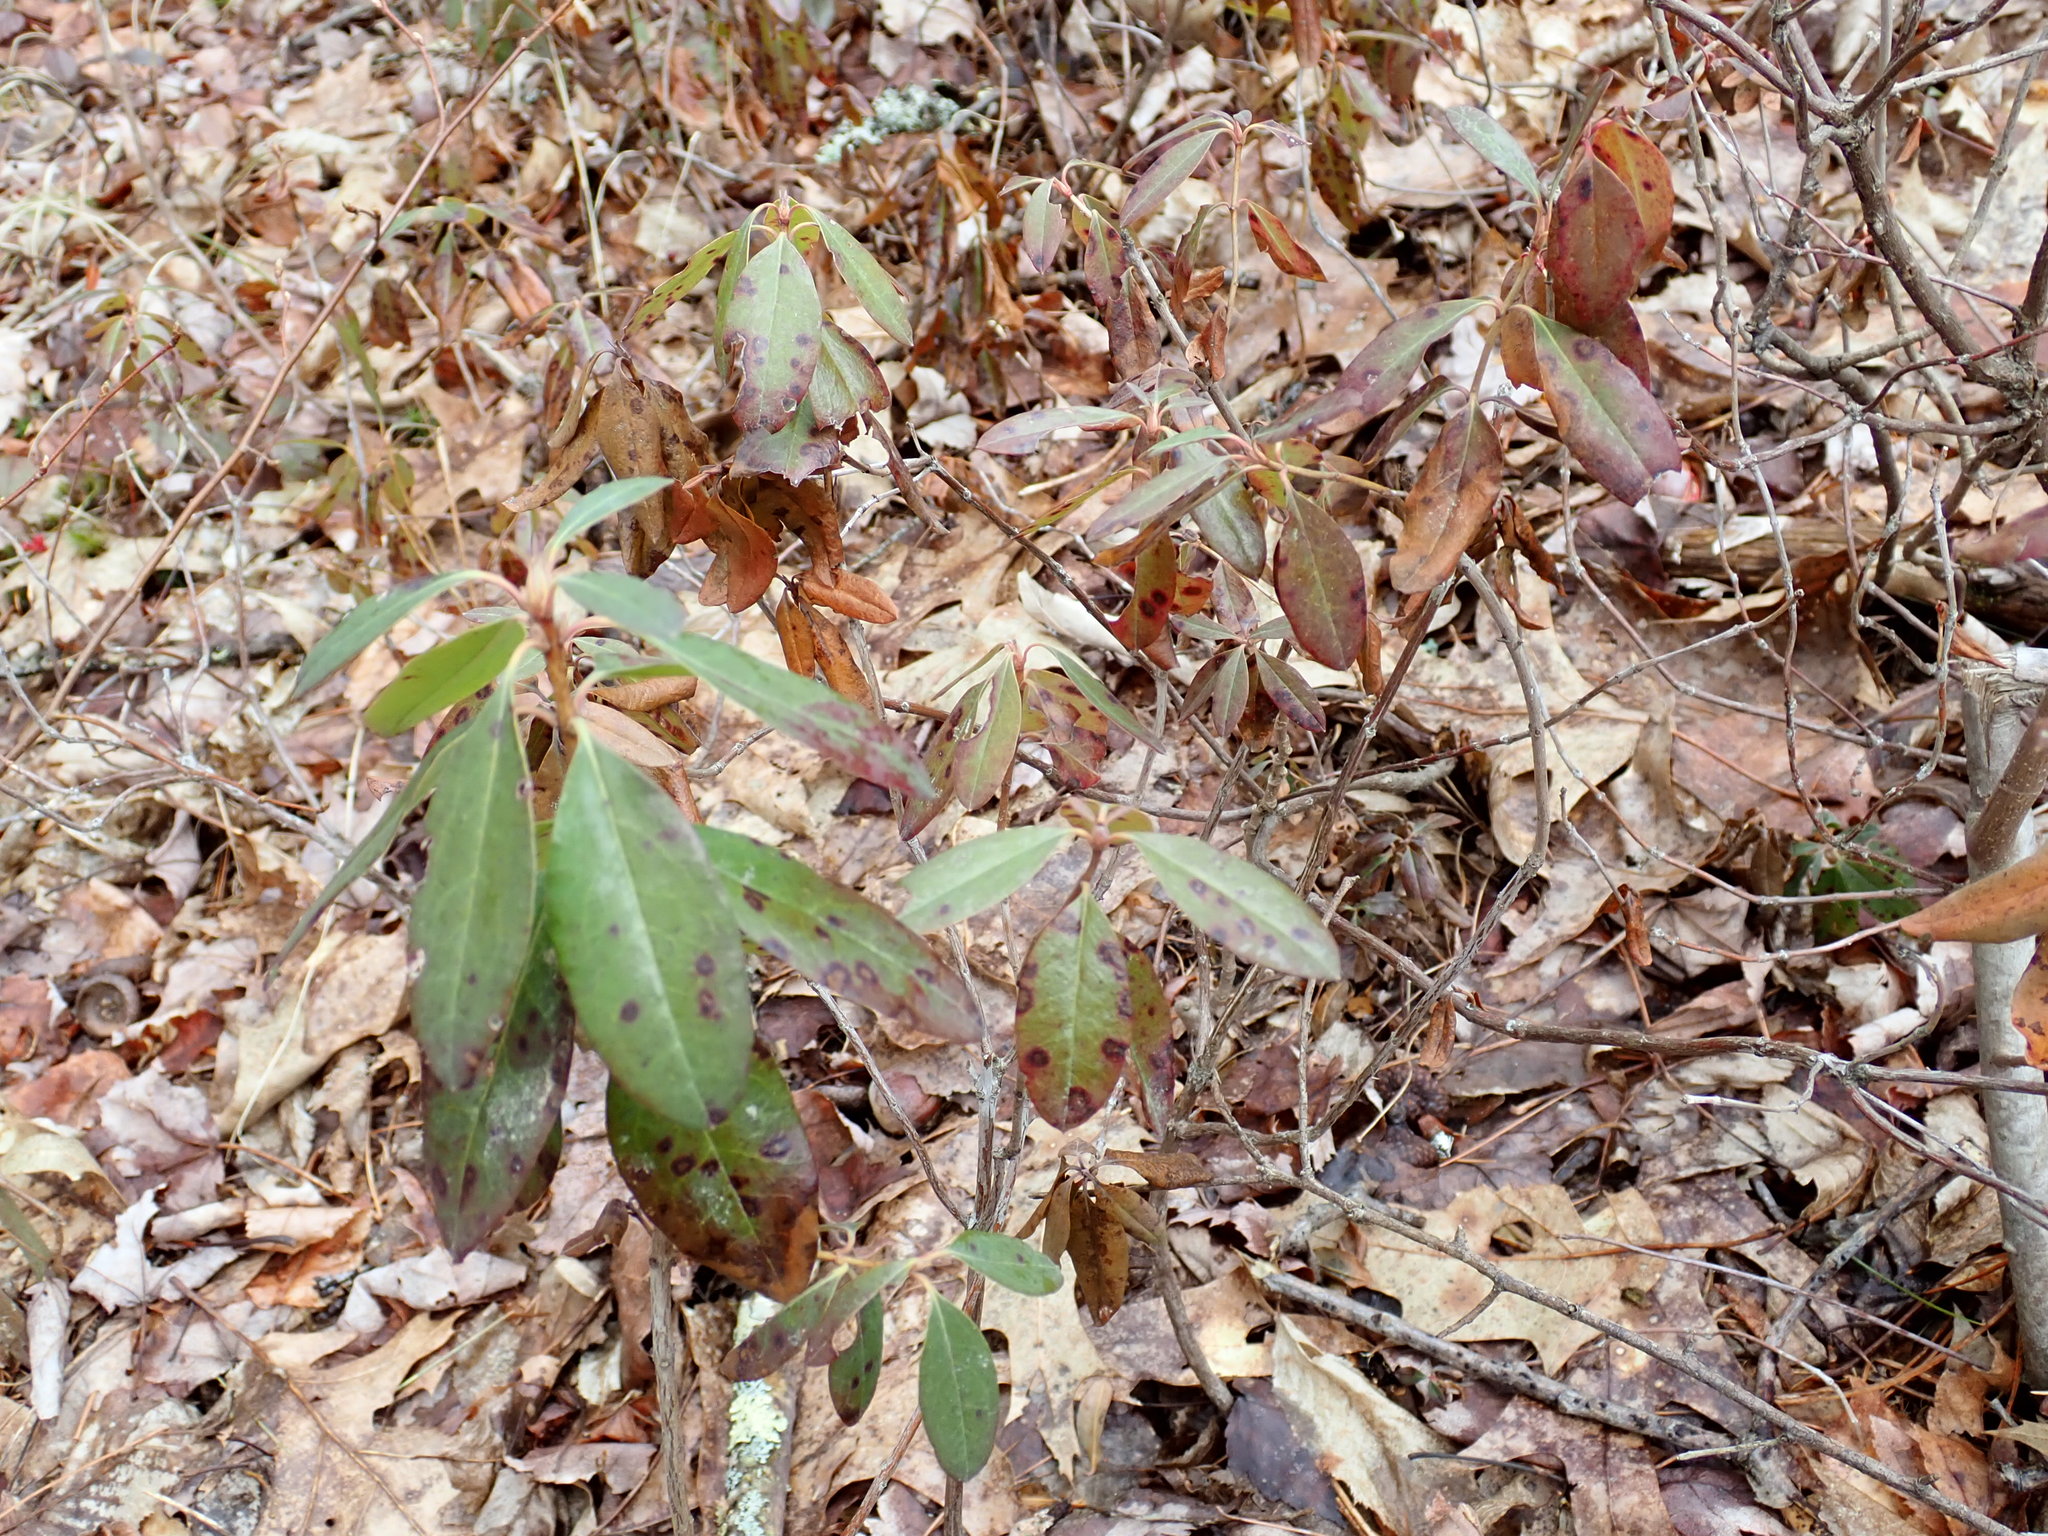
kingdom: Plantae
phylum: Tracheophyta
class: Magnoliopsida
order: Ericales
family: Ericaceae
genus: Kalmia
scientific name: Kalmia angustifolia
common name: Sheep-laurel
